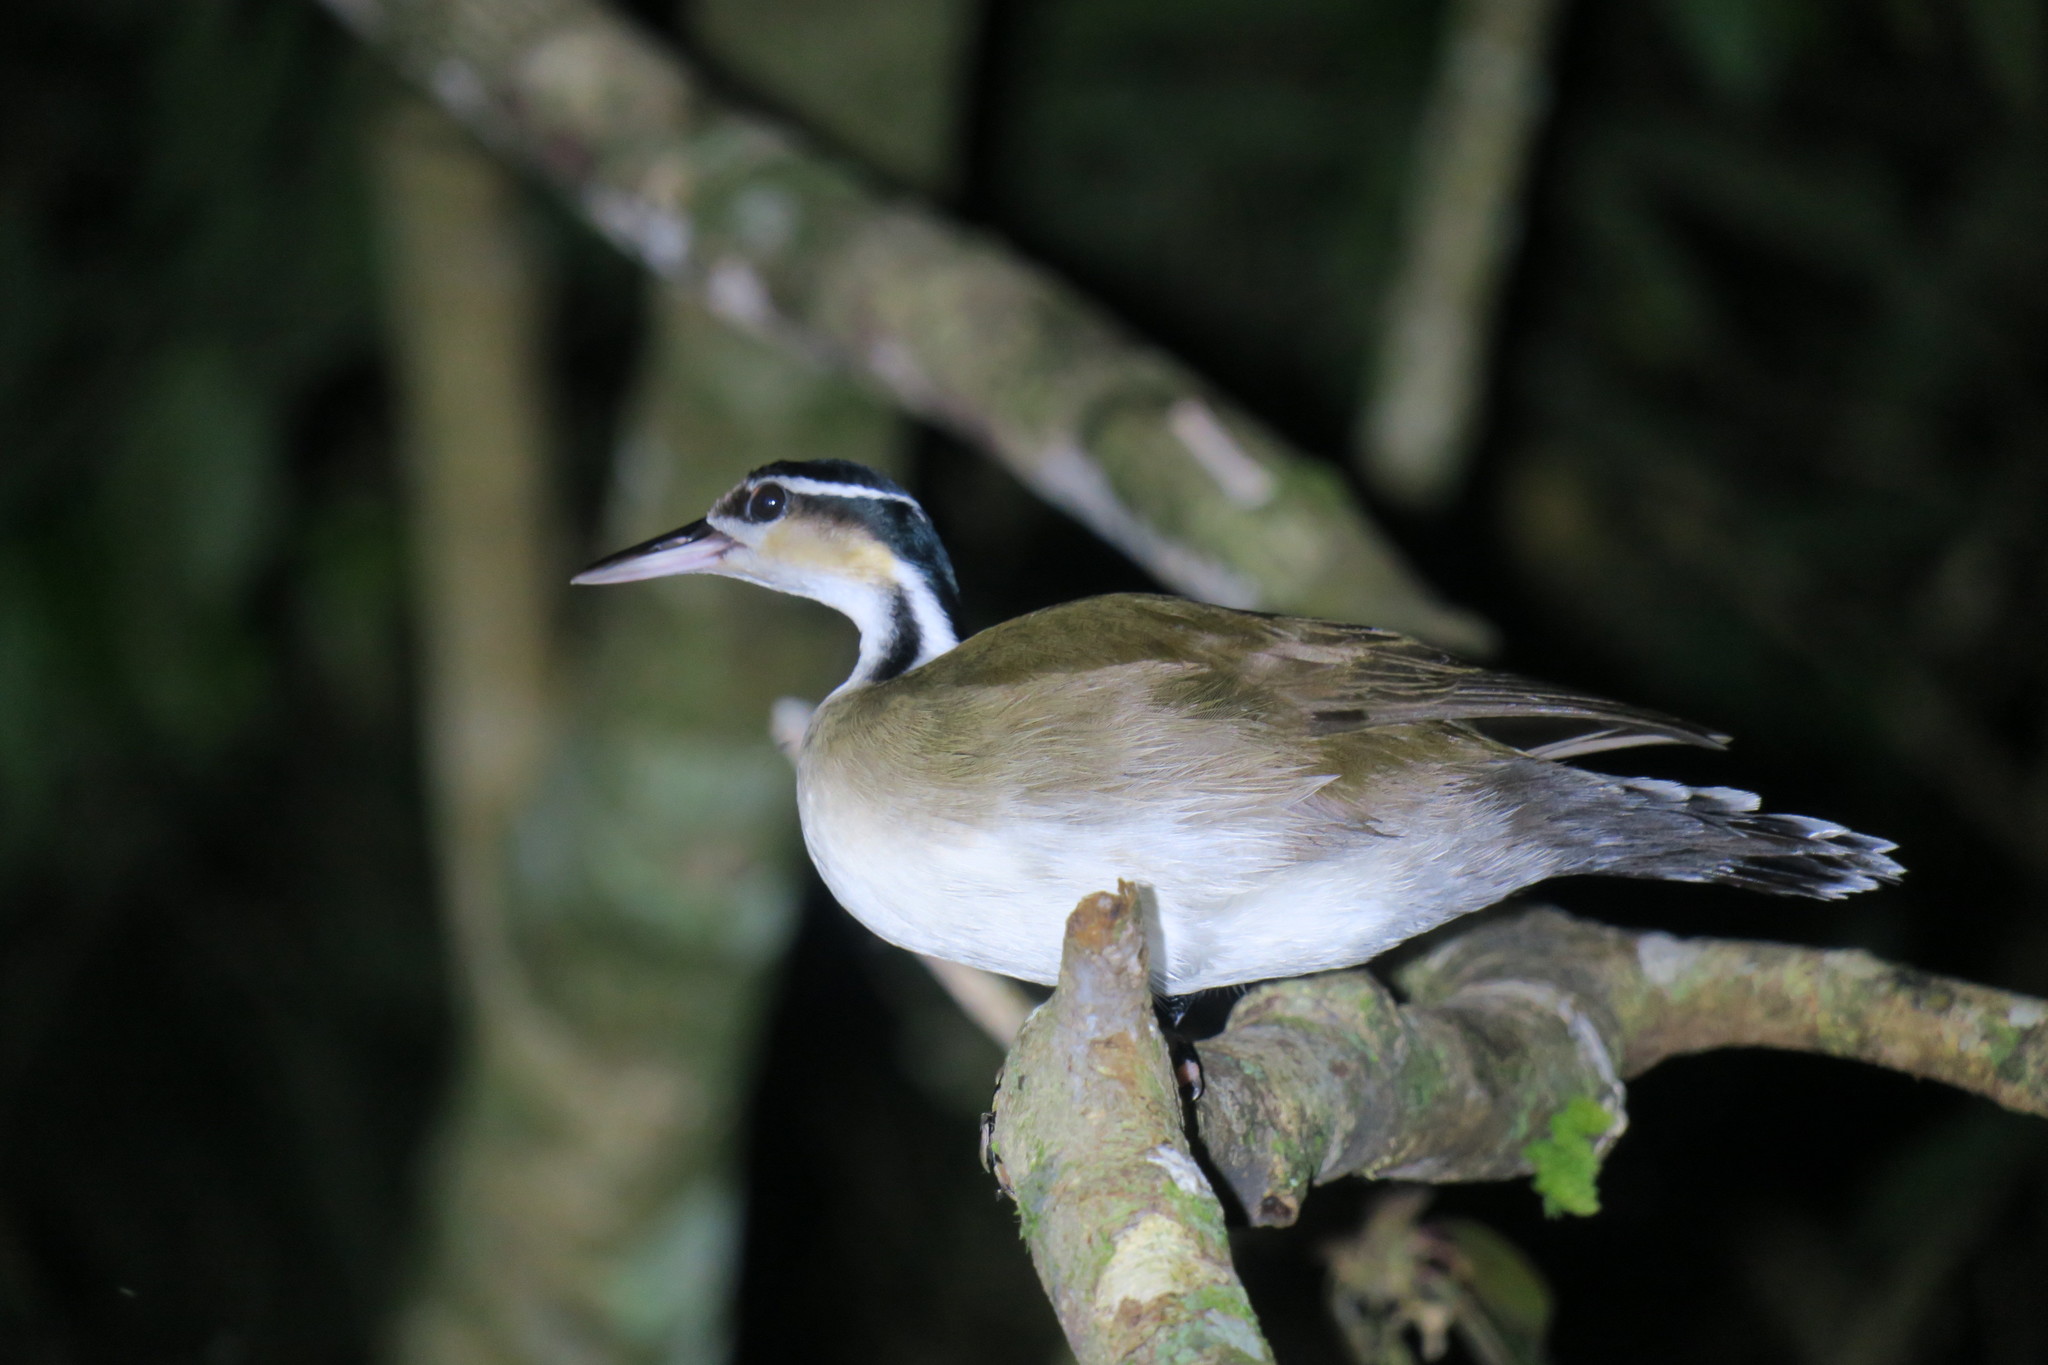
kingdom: Animalia
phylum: Chordata
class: Aves
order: Gruiformes
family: Heliornithidae
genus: Heliornis
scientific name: Heliornis fulica
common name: Sungrebe
